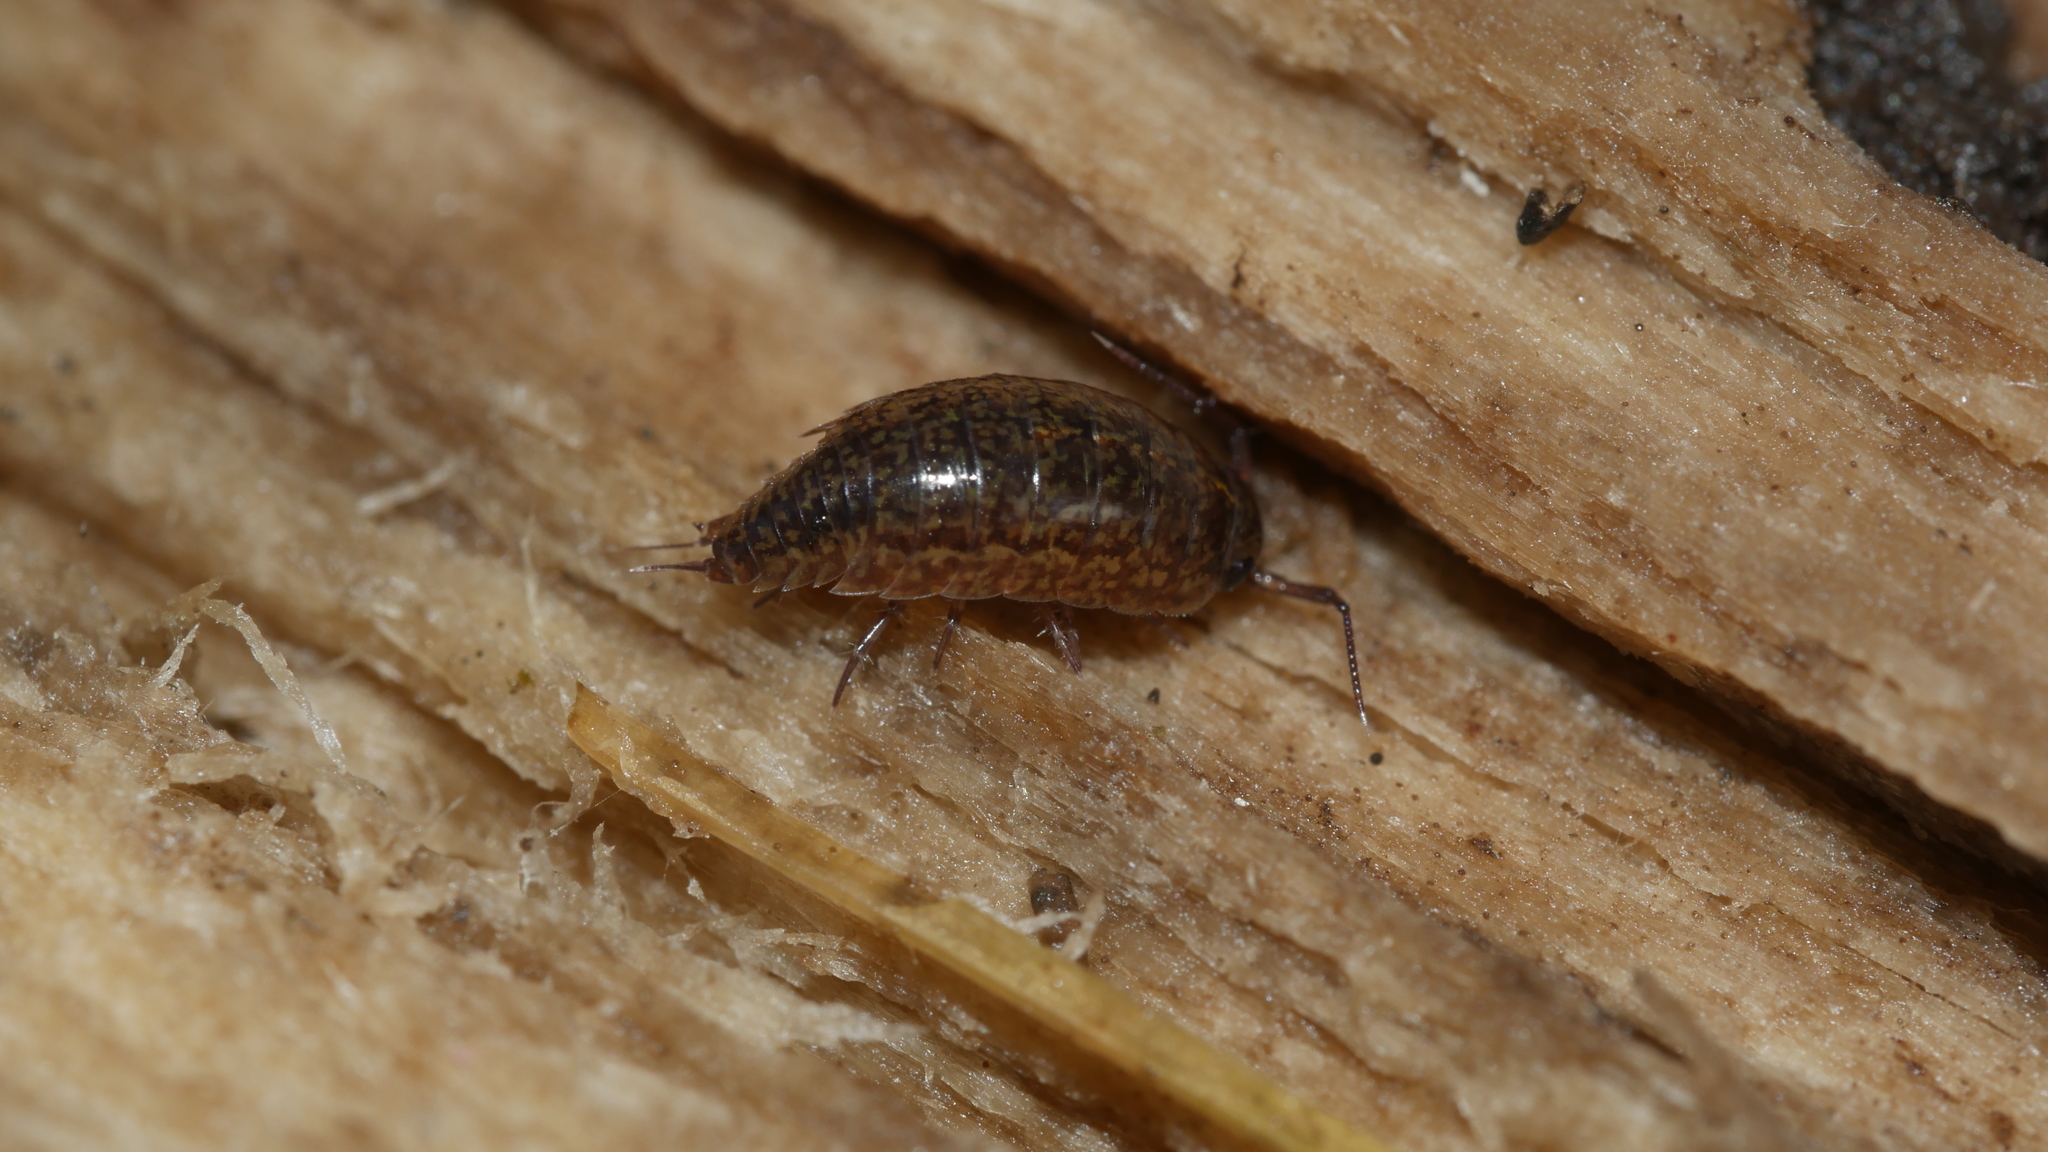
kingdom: Animalia
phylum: Arthropoda
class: Malacostraca
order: Isopoda
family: Ligiidae
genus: Ligidium
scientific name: Ligidium elrodii
